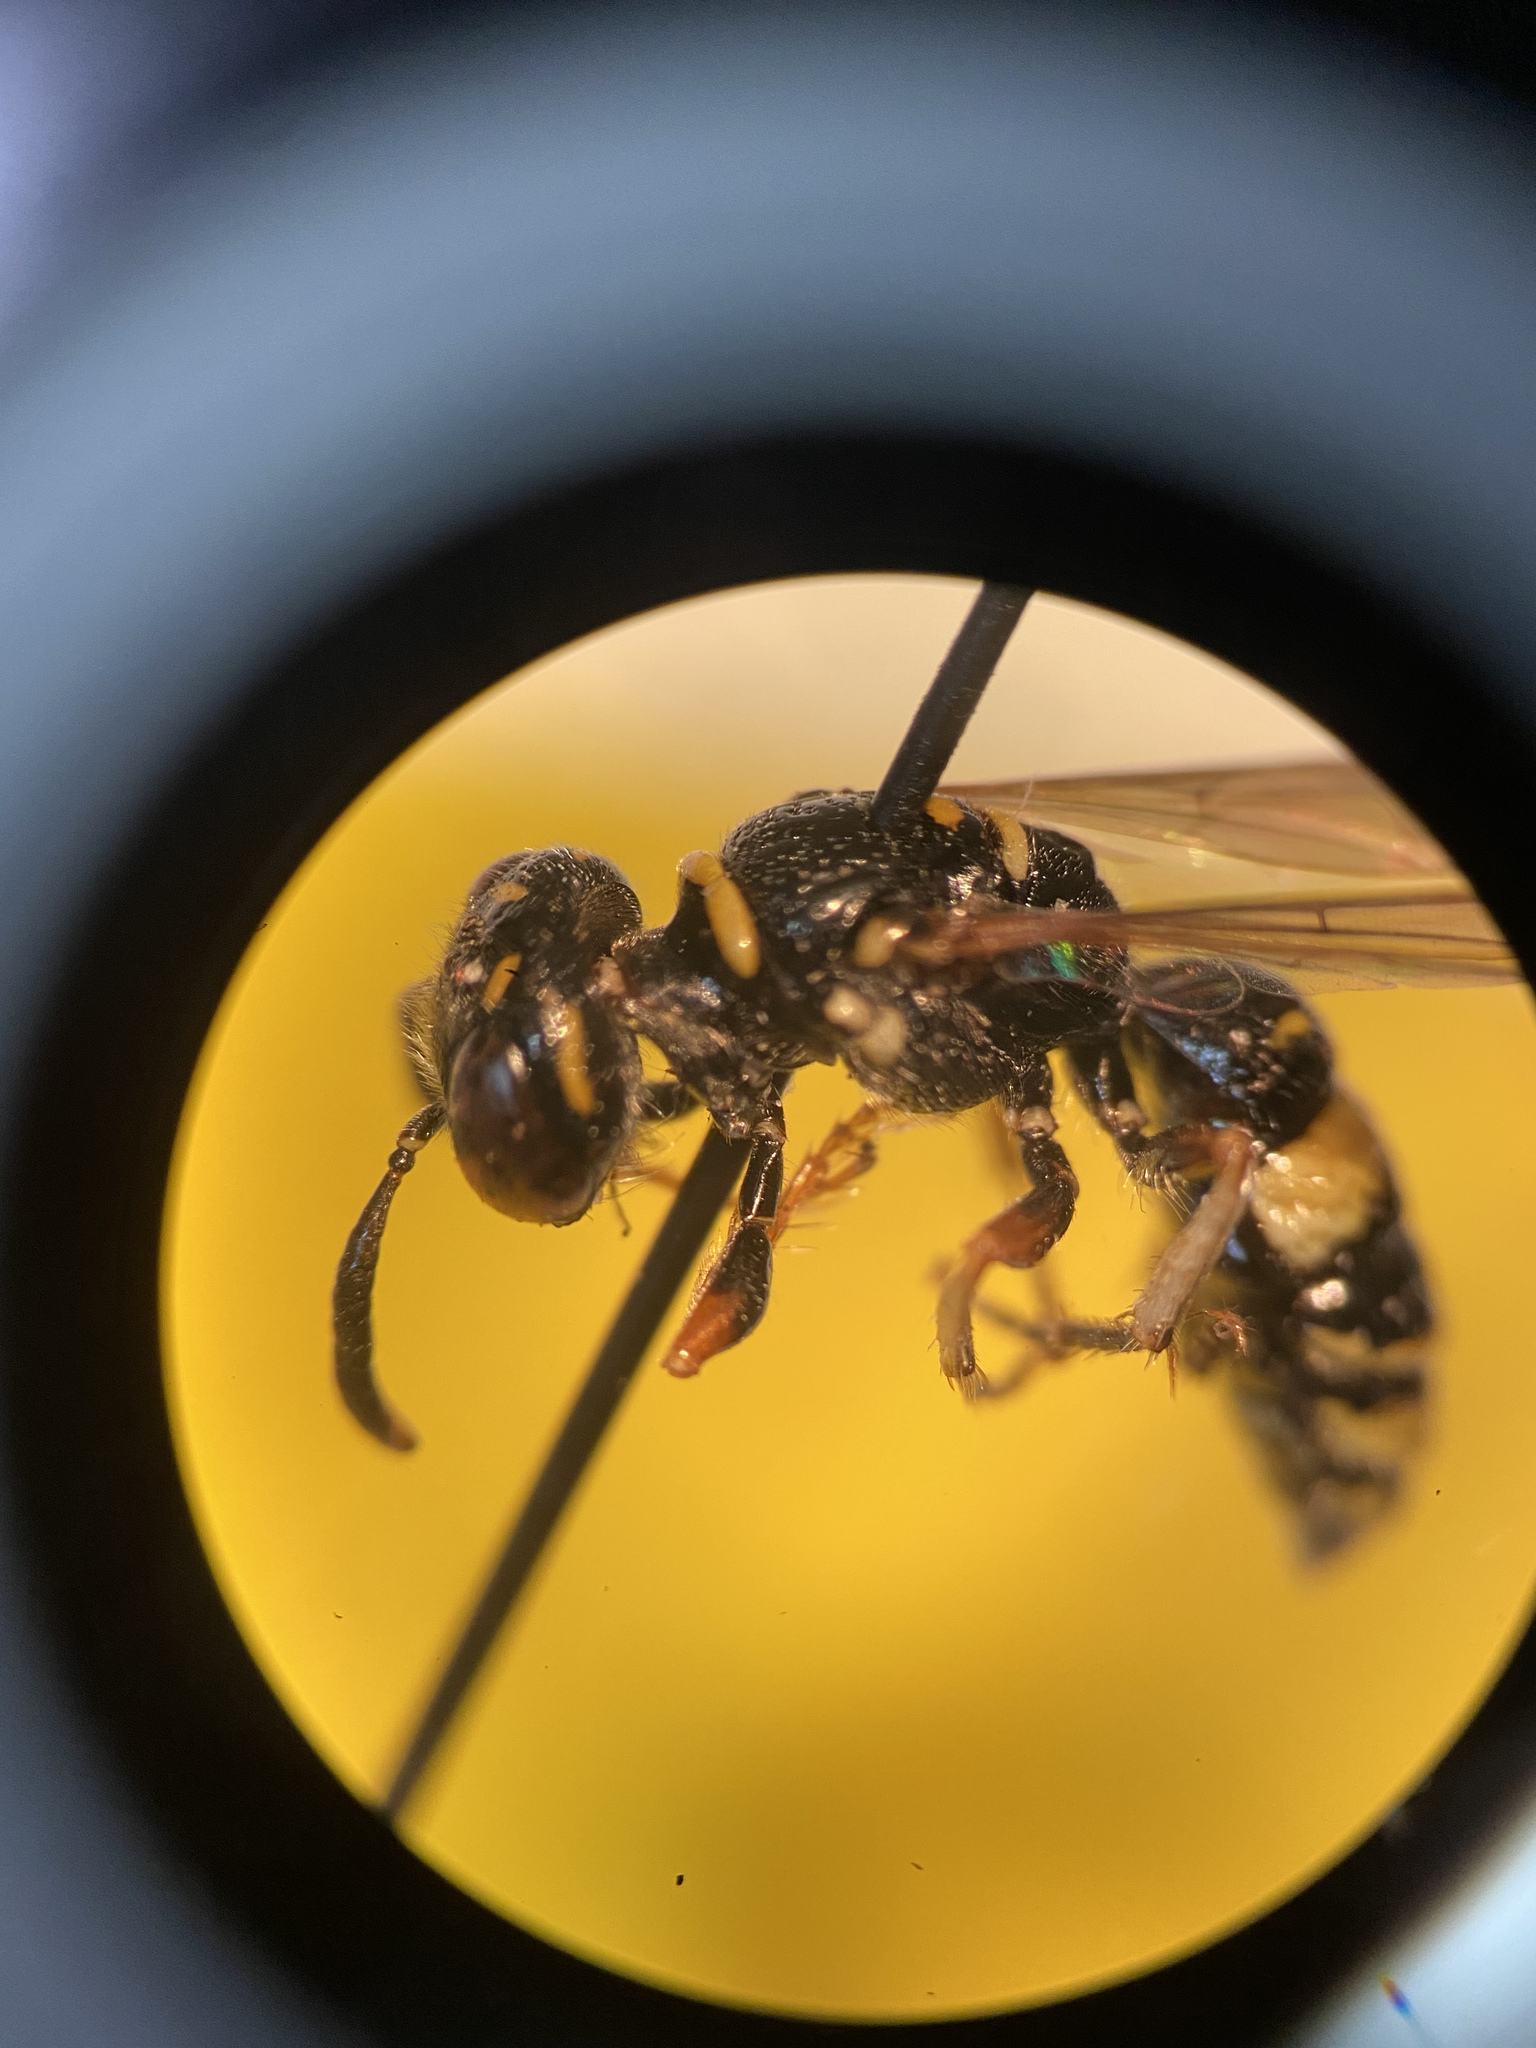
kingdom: Animalia
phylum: Arthropoda
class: Insecta
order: Hymenoptera
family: Crabronidae
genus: Philanthus
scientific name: Philanthus gibbosus
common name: Humped beewolf
